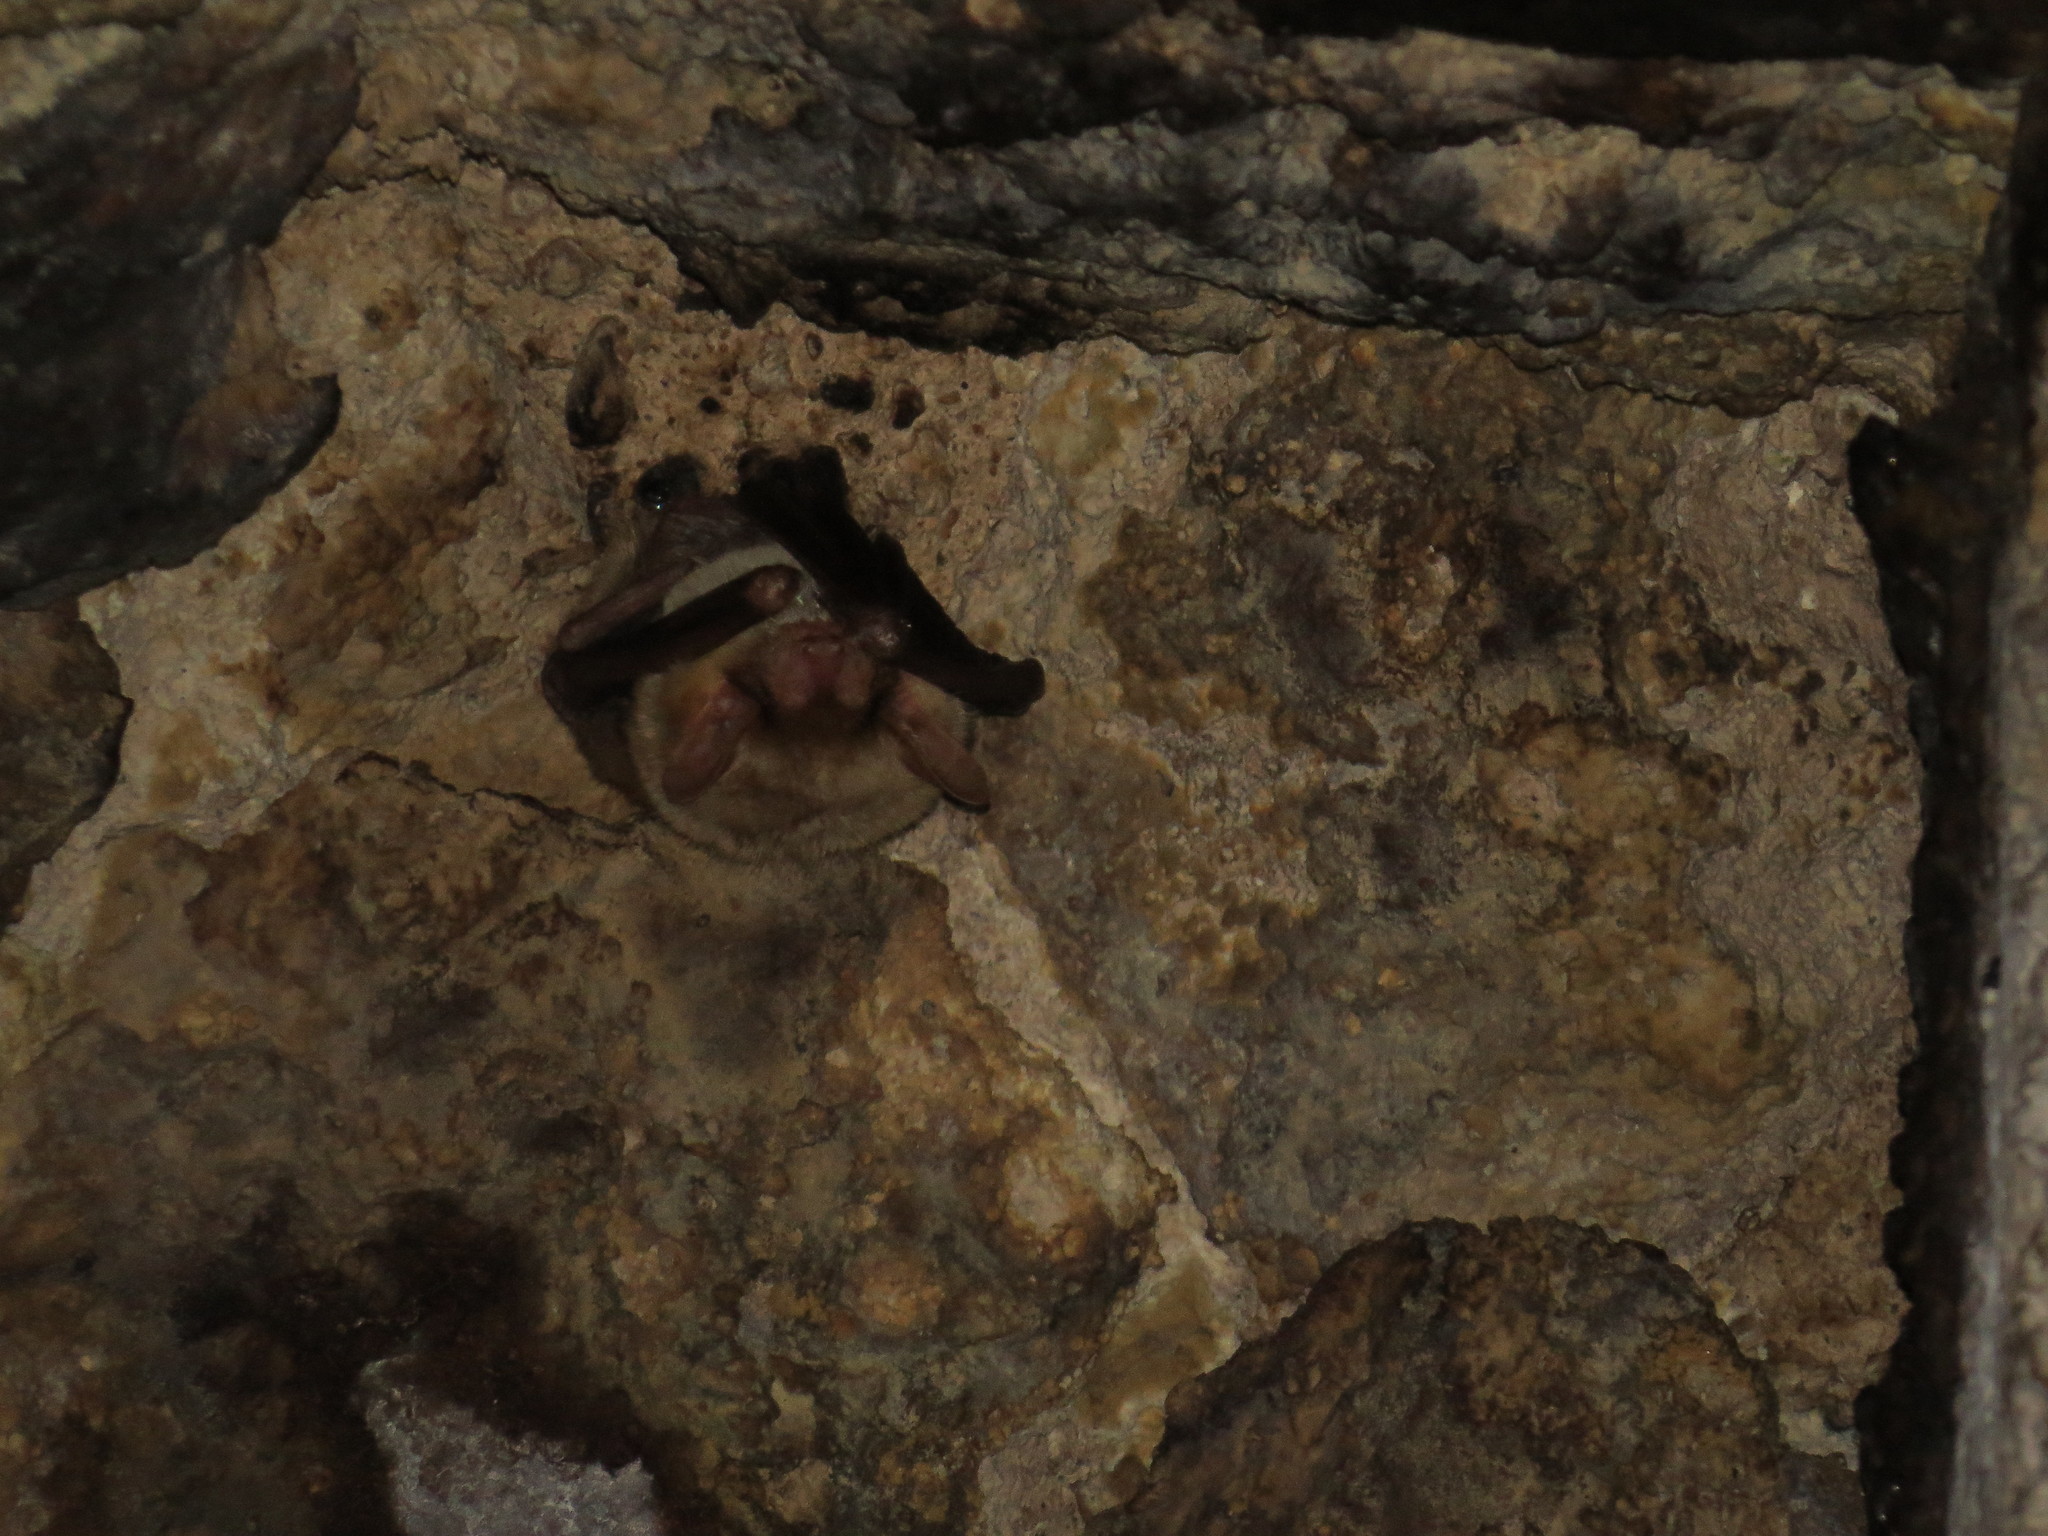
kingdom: Animalia
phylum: Chordata
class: Mammalia
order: Chiroptera
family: Vespertilionidae
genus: Myotis
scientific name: Myotis blythii
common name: Lesser mouse-eared myotis
